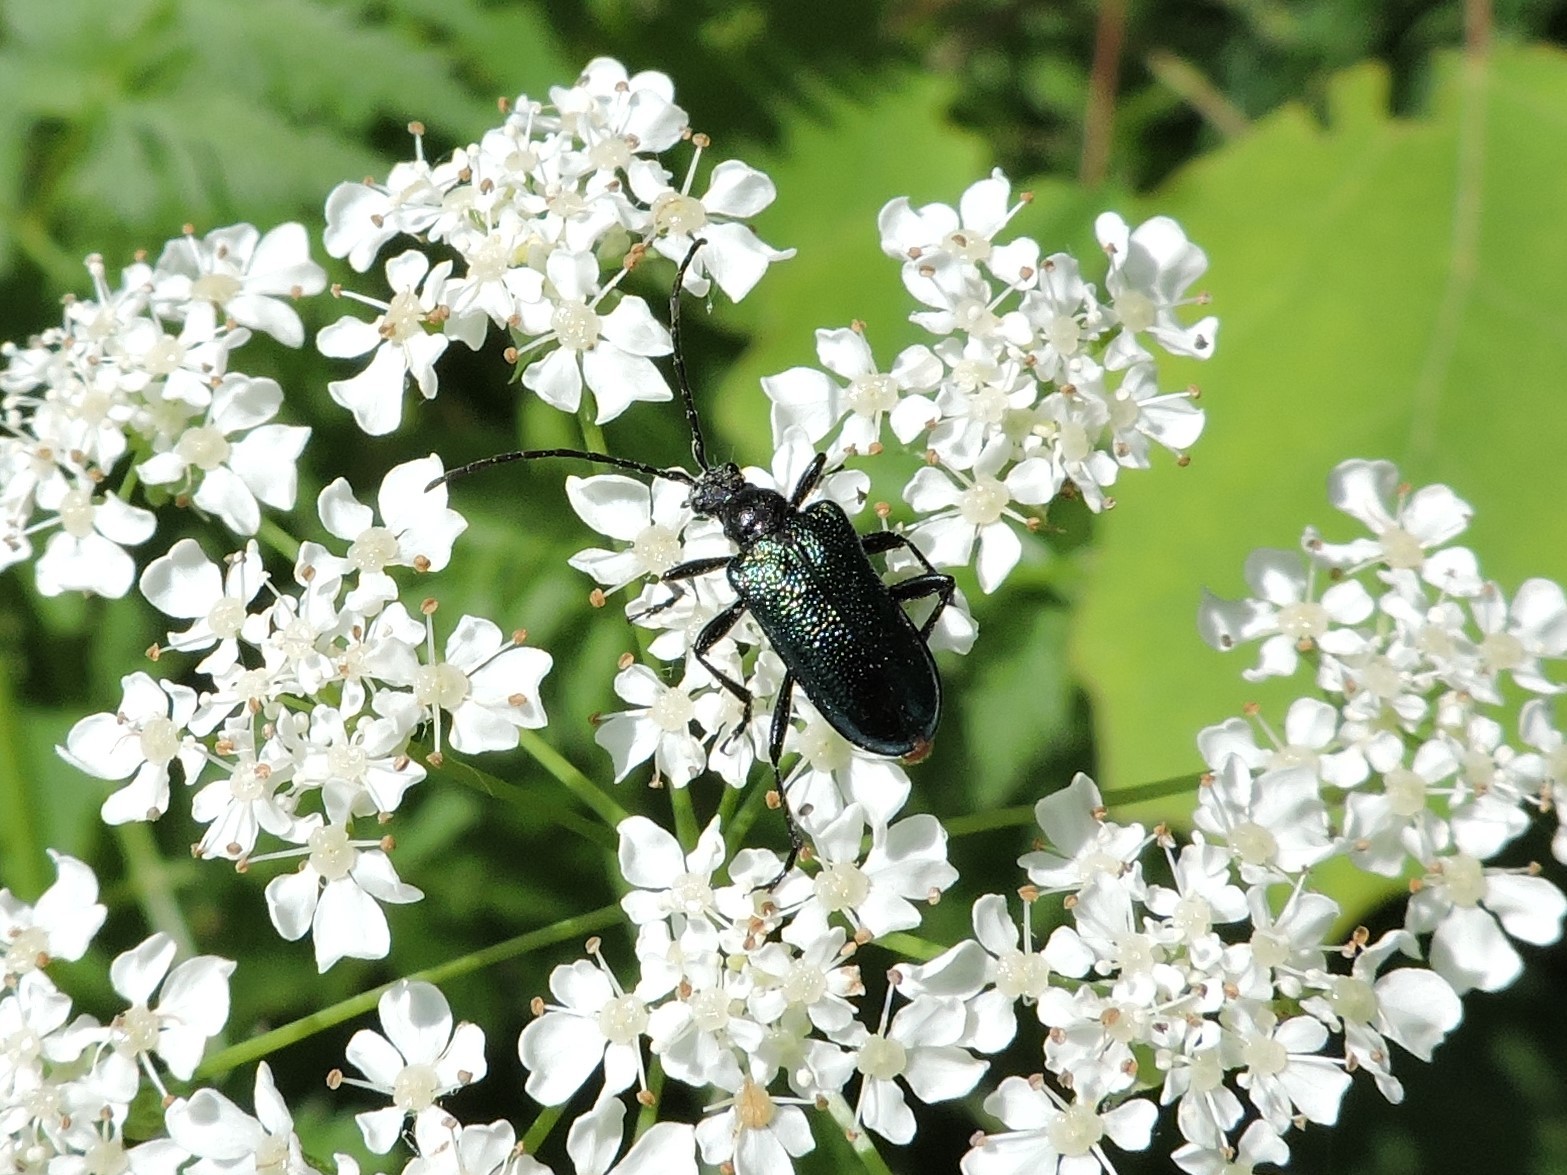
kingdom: Animalia
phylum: Arthropoda
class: Insecta
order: Coleoptera
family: Cerambycidae
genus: Gaurotes
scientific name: Gaurotes virginea
